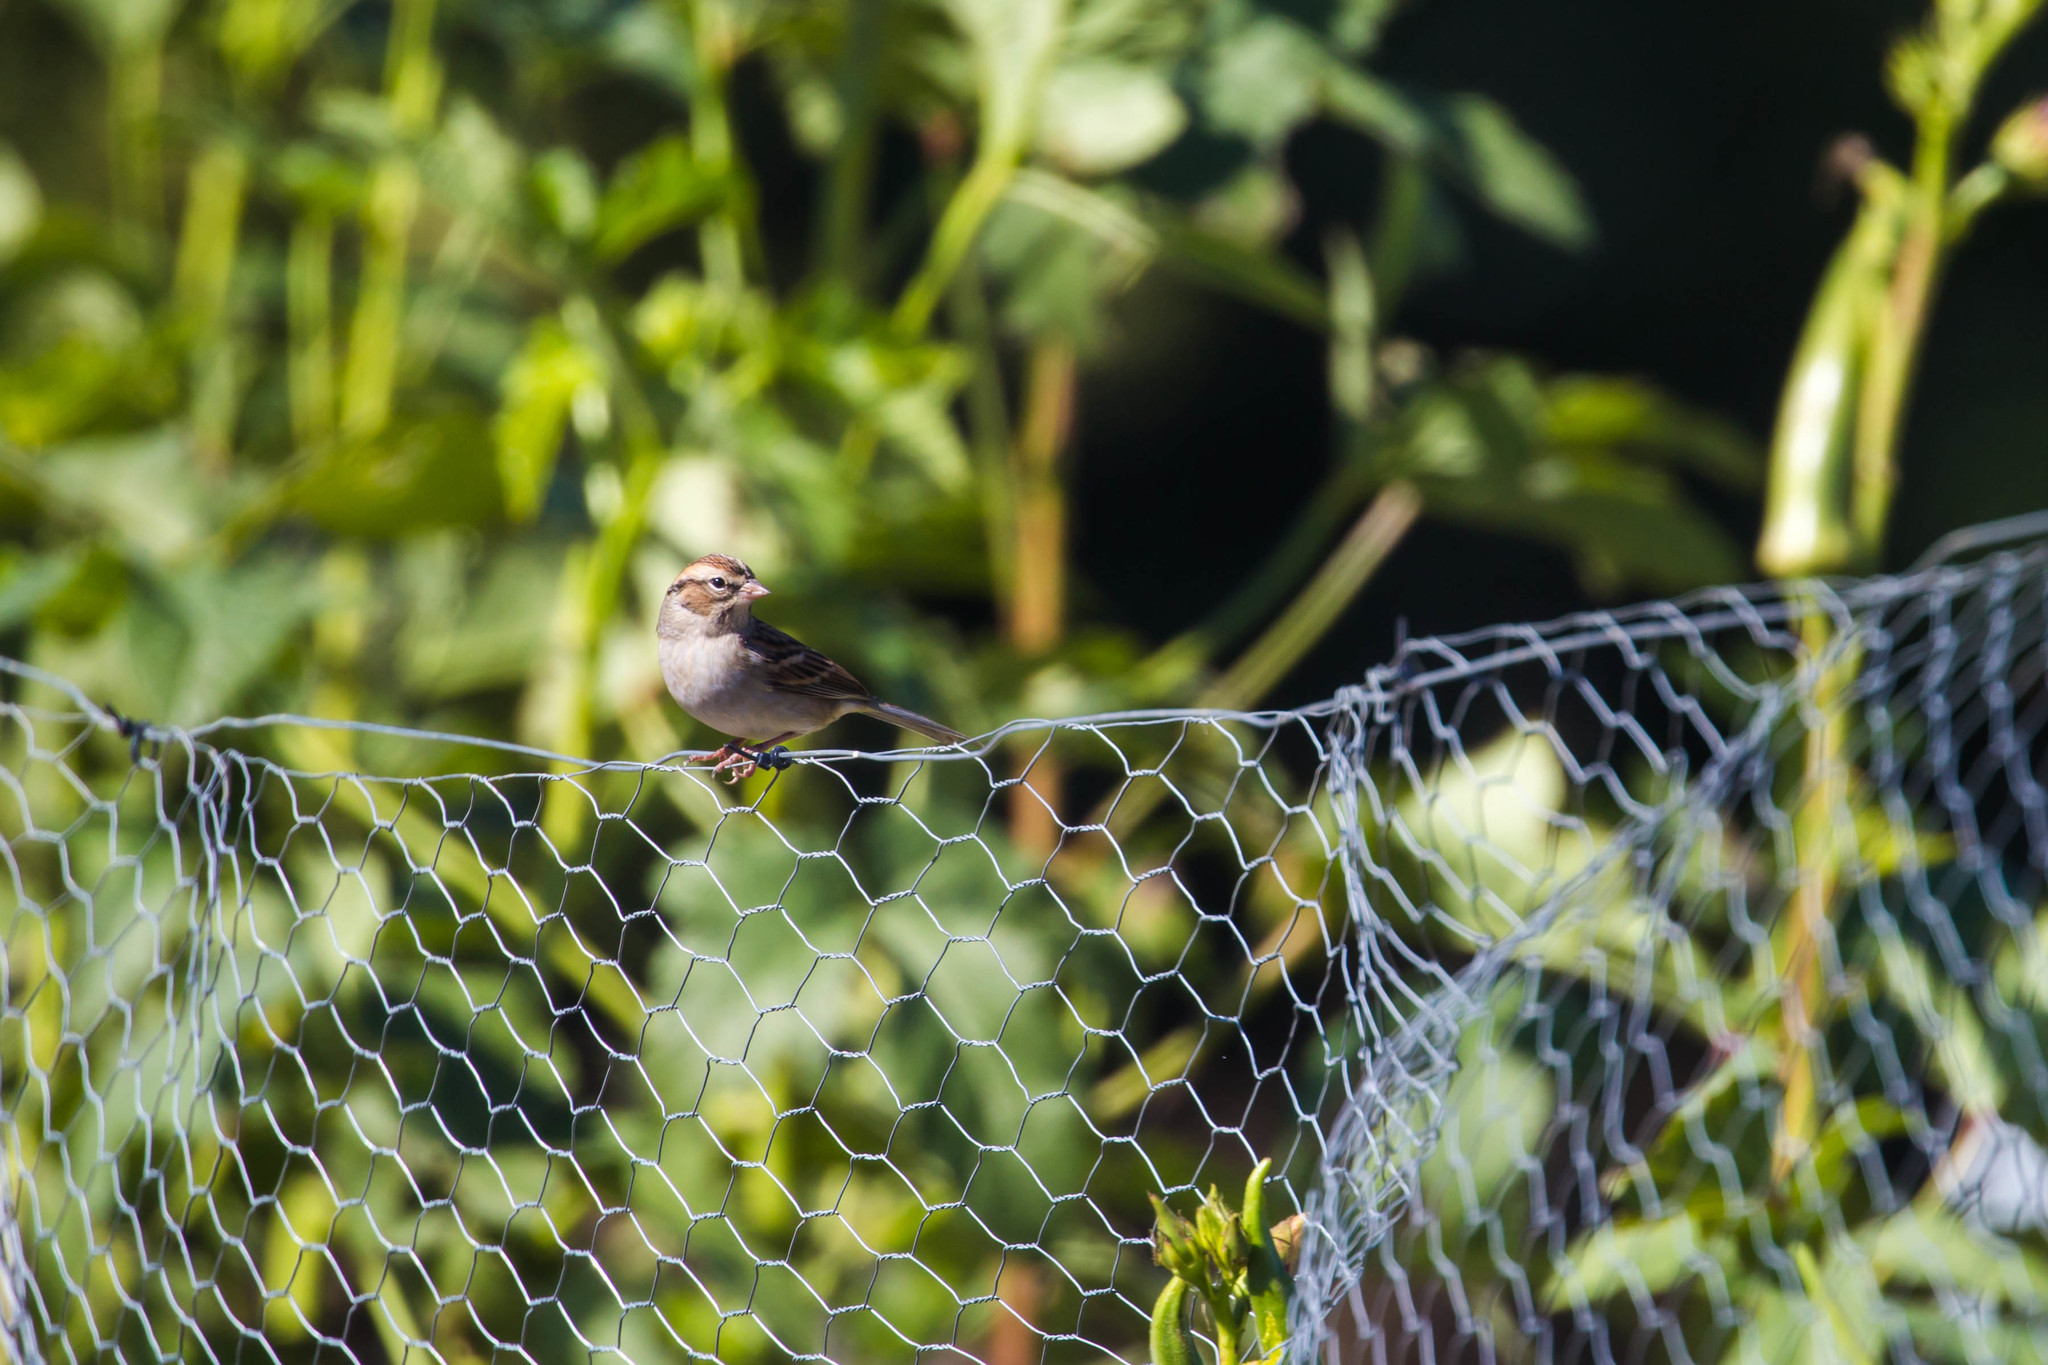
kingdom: Animalia
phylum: Chordata
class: Aves
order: Passeriformes
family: Passerellidae
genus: Spizella
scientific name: Spizella passerina
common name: Chipping sparrow
